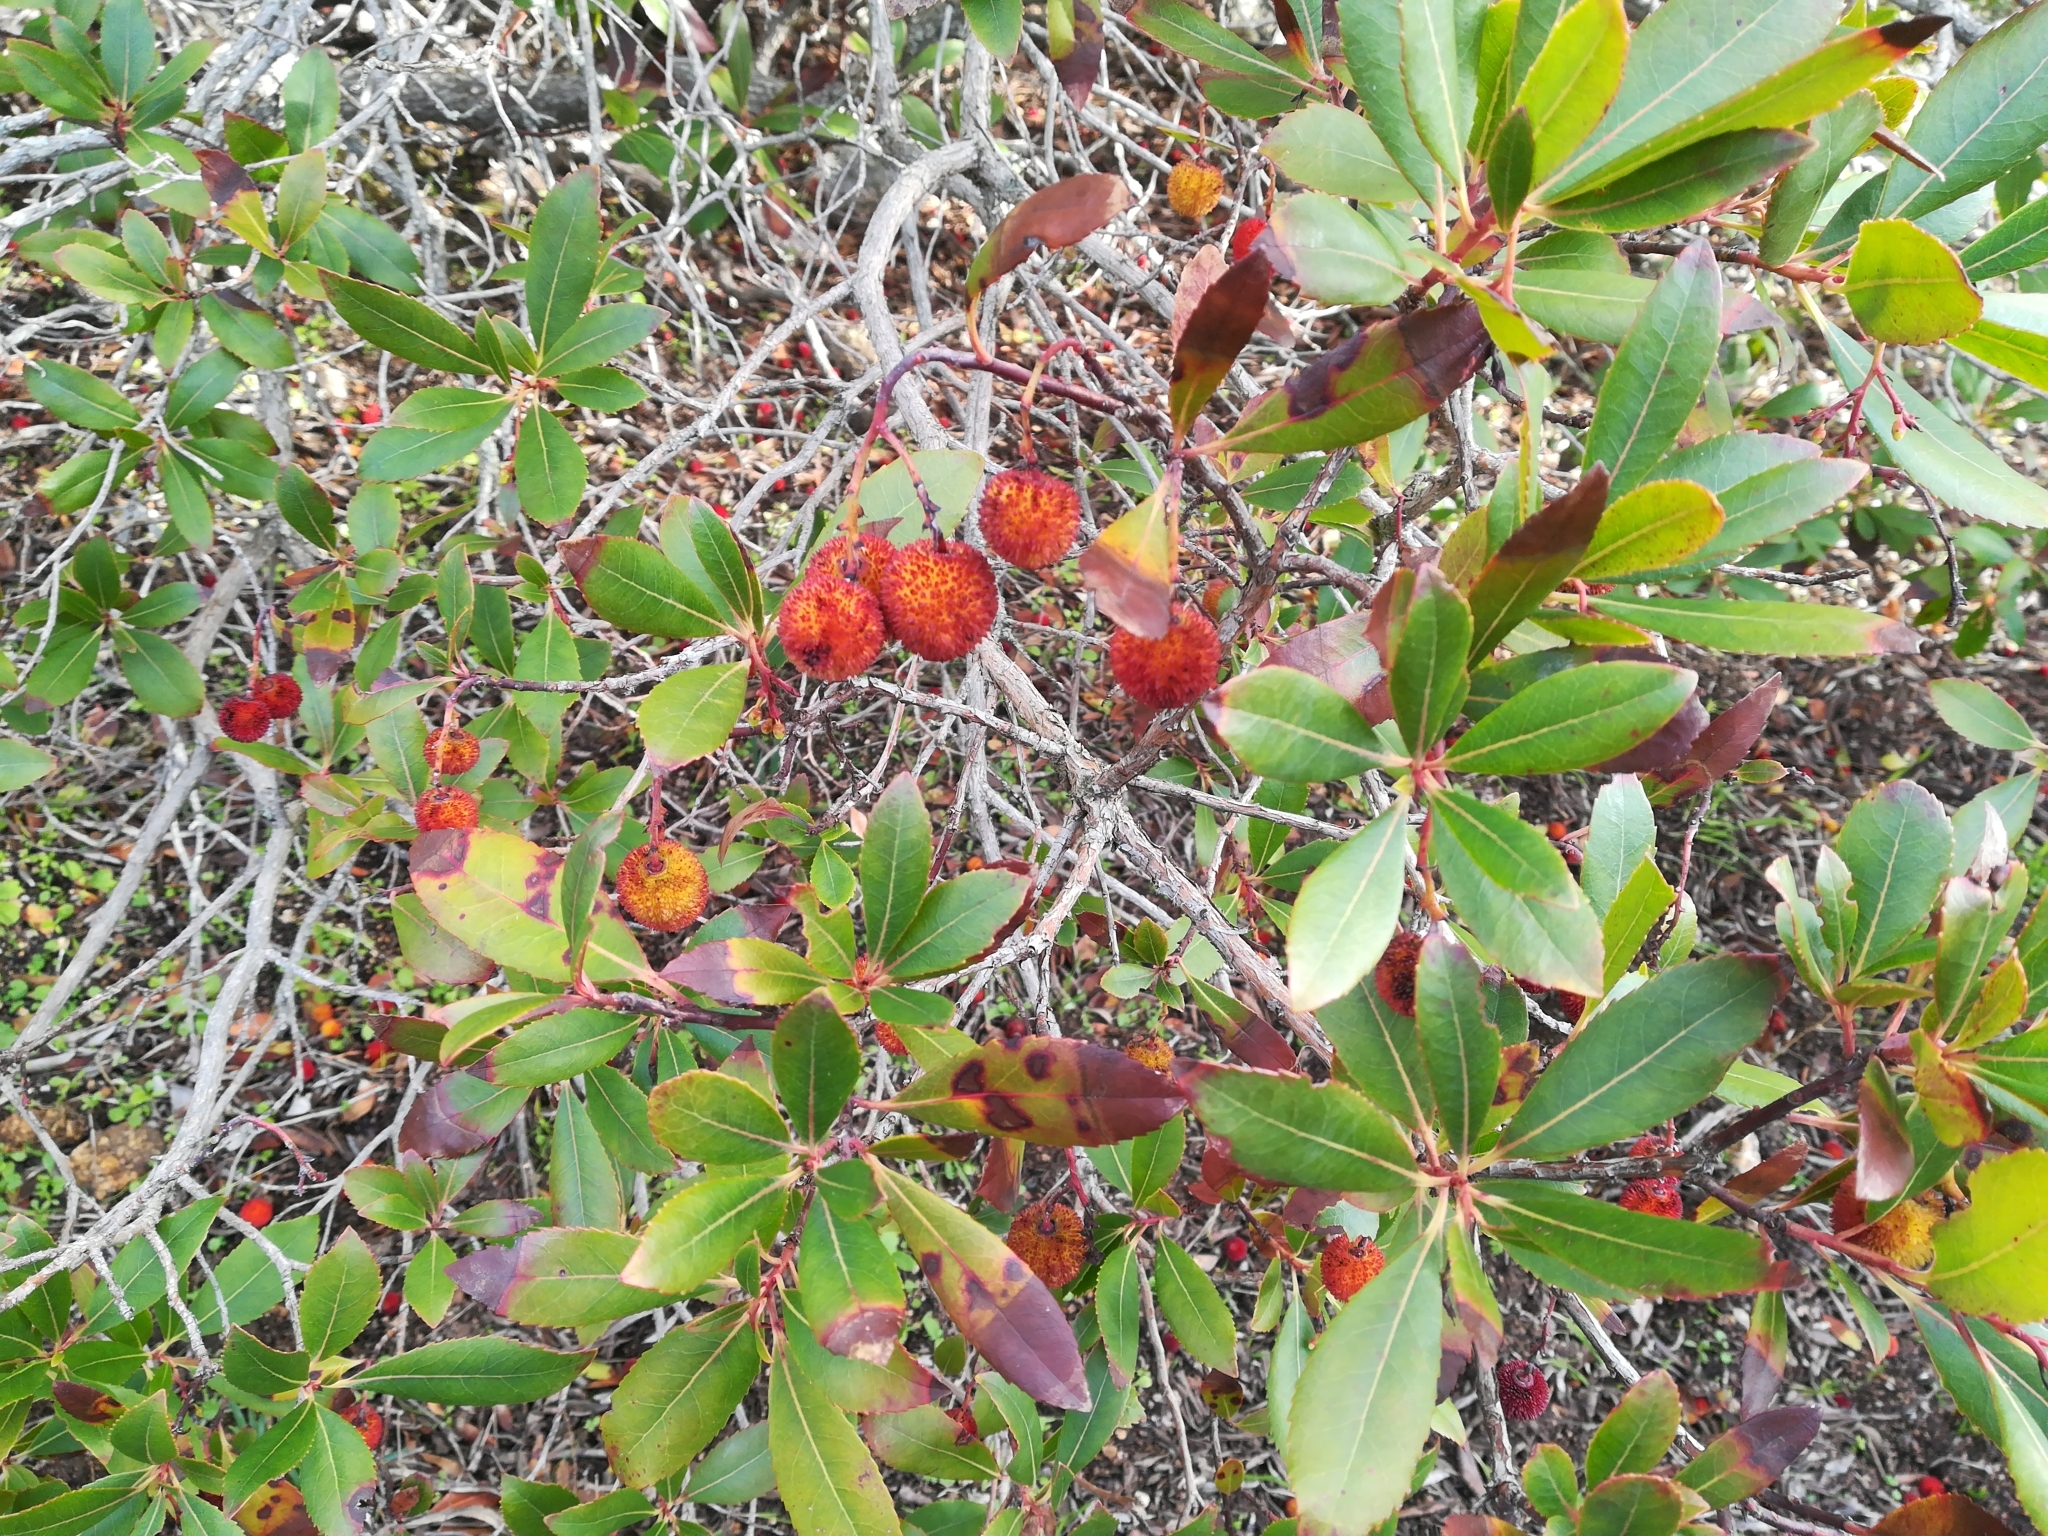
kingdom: Plantae
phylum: Tracheophyta
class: Magnoliopsida
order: Ericales
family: Ericaceae
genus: Arbutus
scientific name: Arbutus unedo
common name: Strawberry-tree
